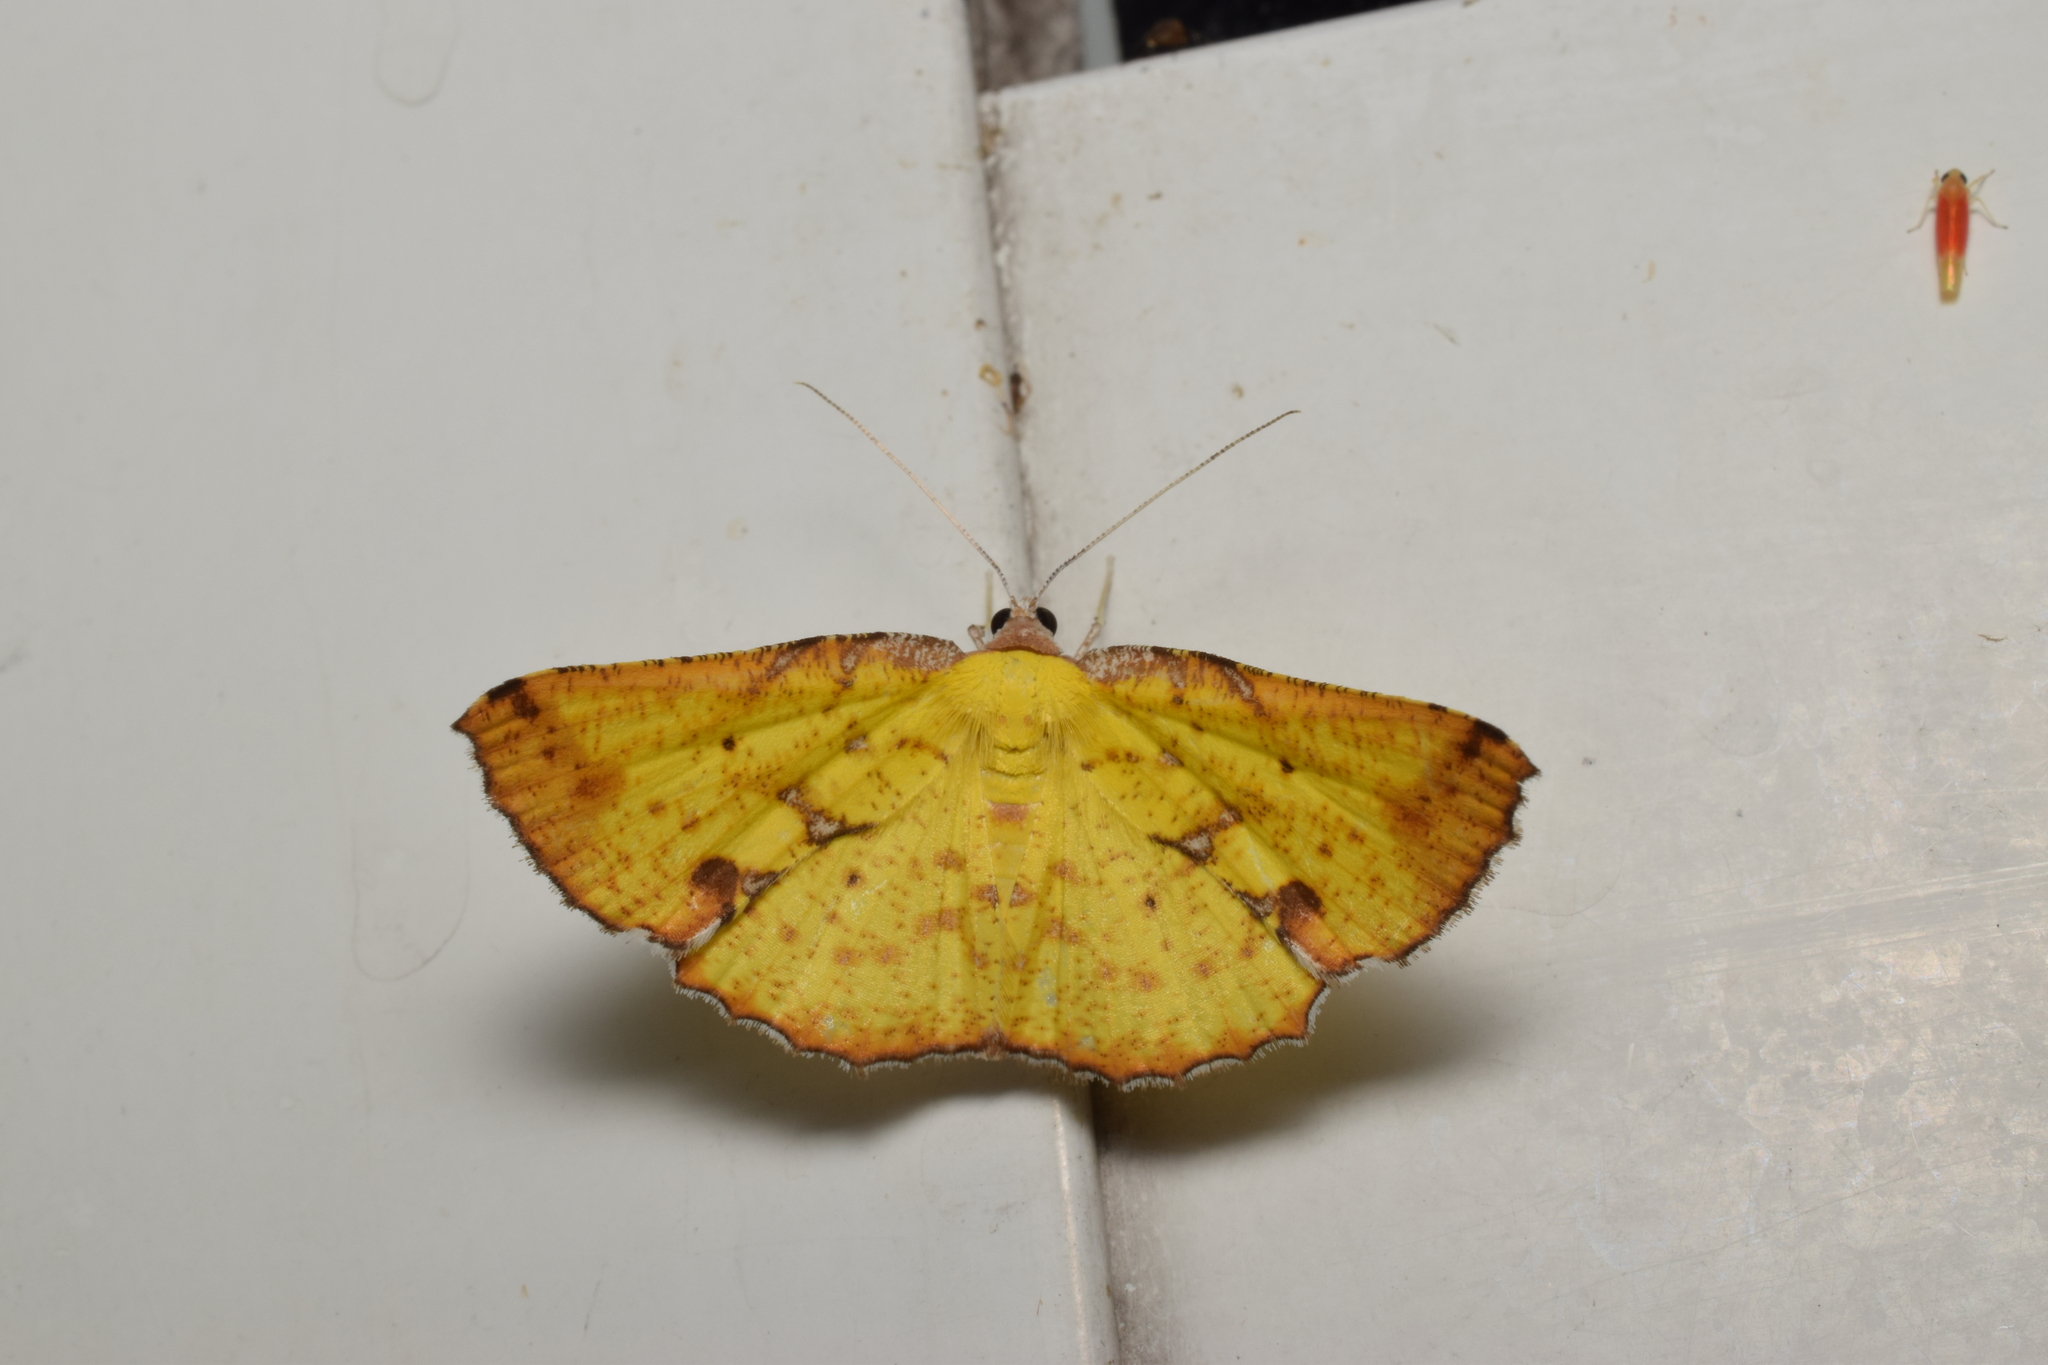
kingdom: Animalia
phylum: Arthropoda
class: Insecta
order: Lepidoptera
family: Geometridae
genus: Corymica
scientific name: Corymica arnearia
